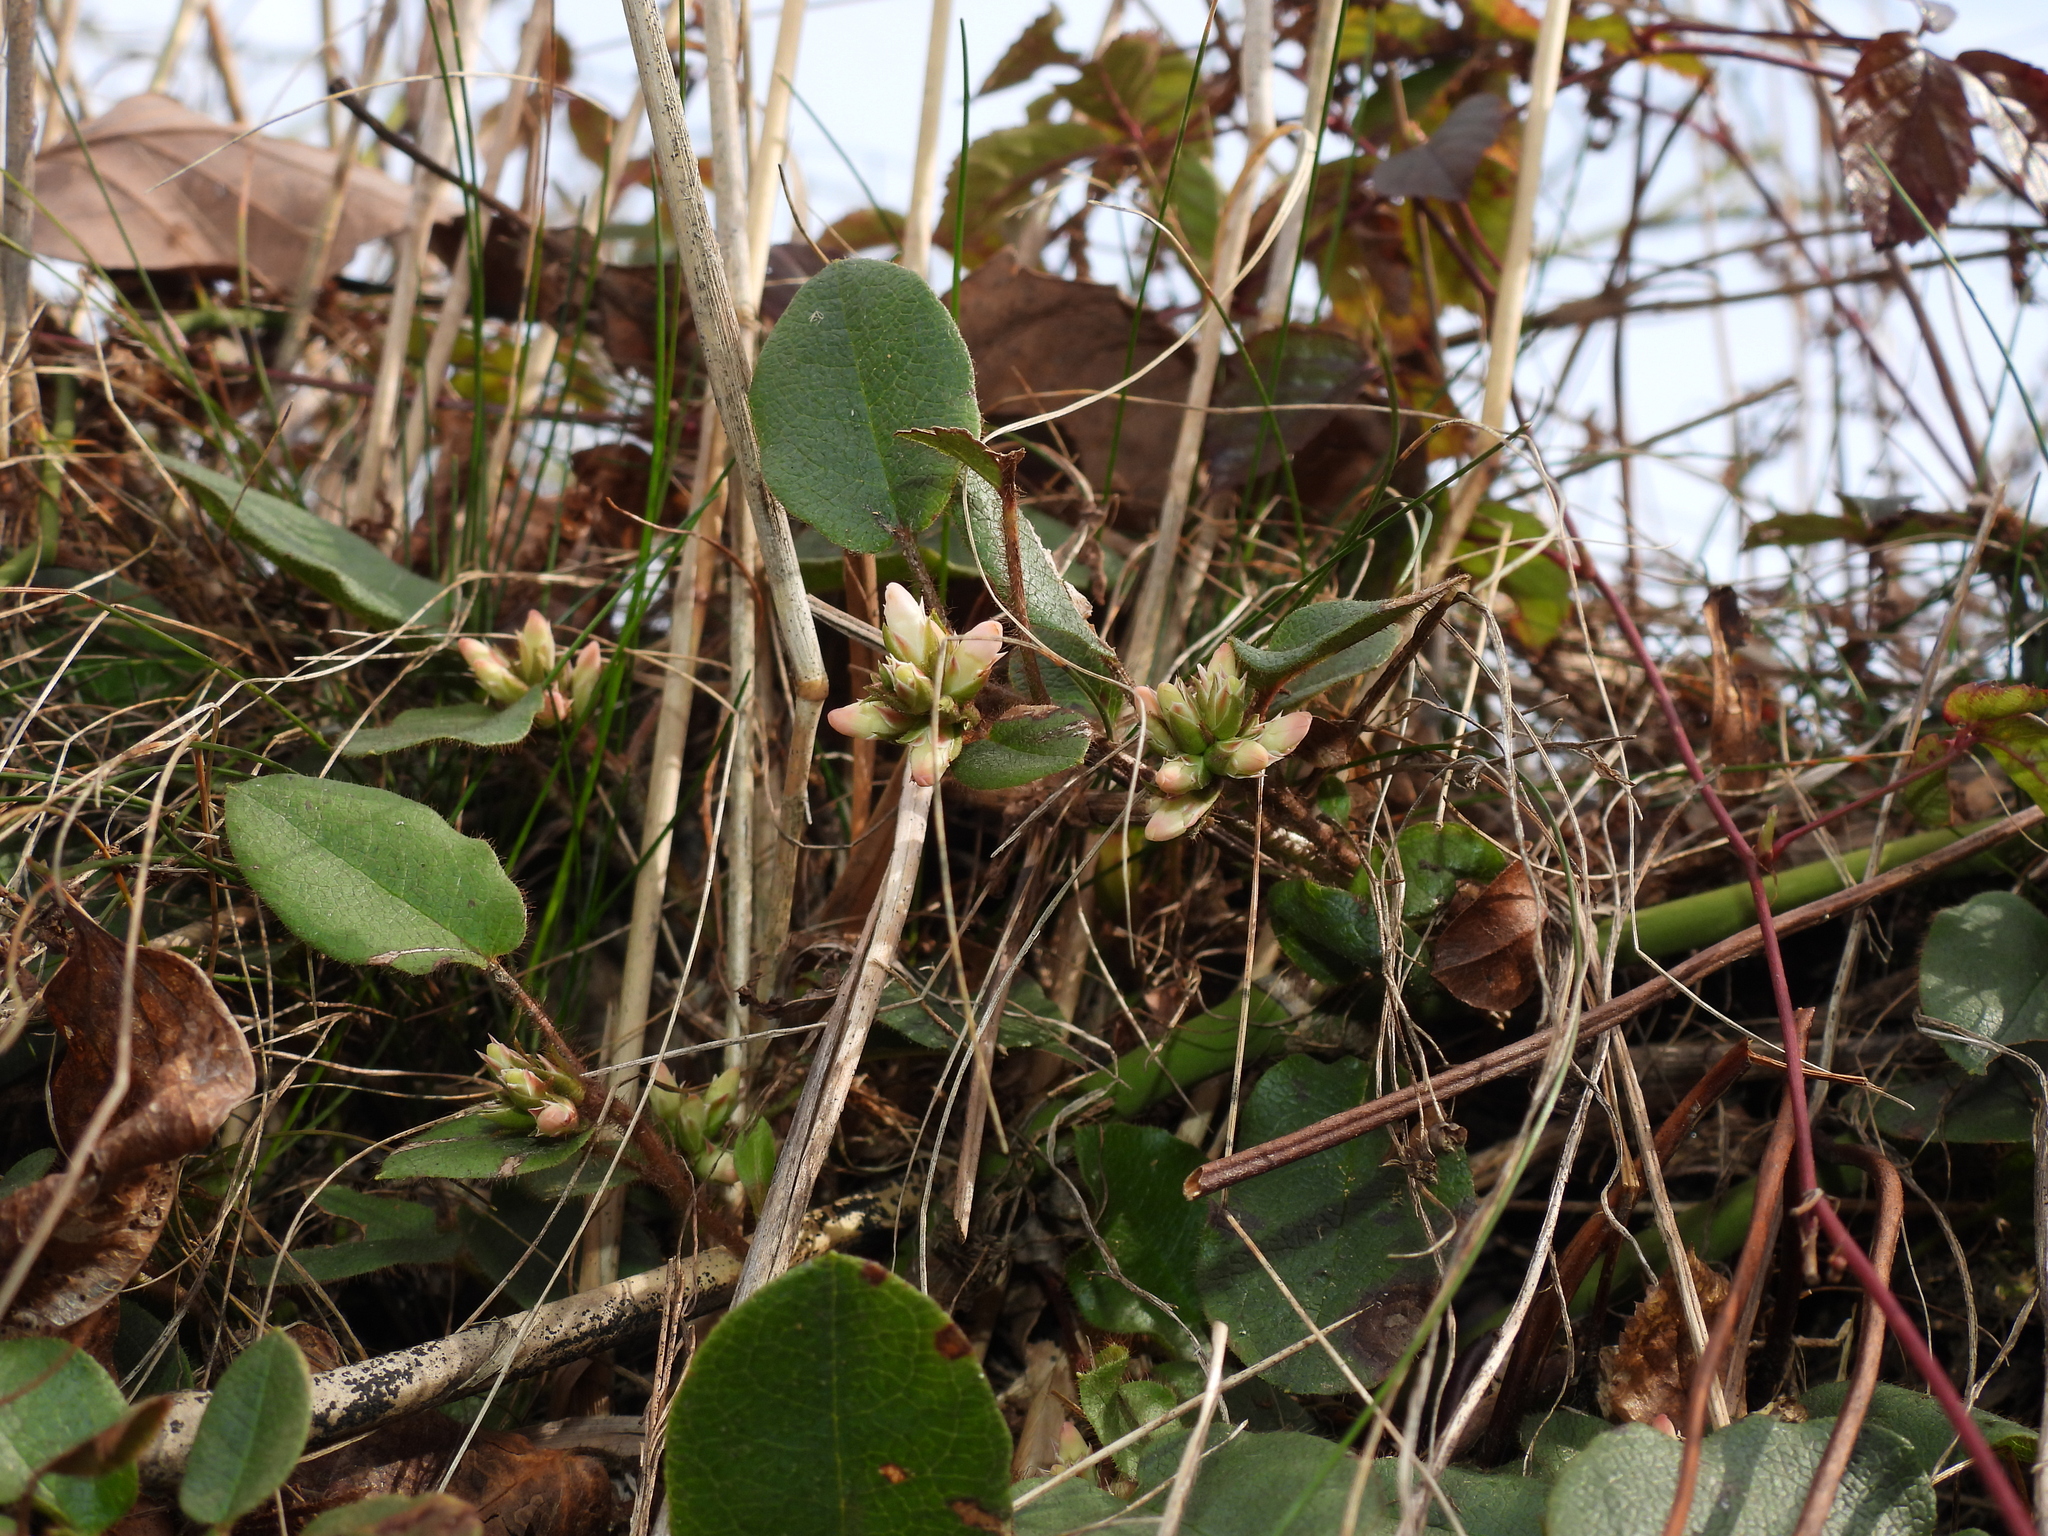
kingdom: Plantae
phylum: Tracheophyta
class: Magnoliopsida
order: Ericales
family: Ericaceae
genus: Epigaea
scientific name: Epigaea repens
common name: Gravelroot
